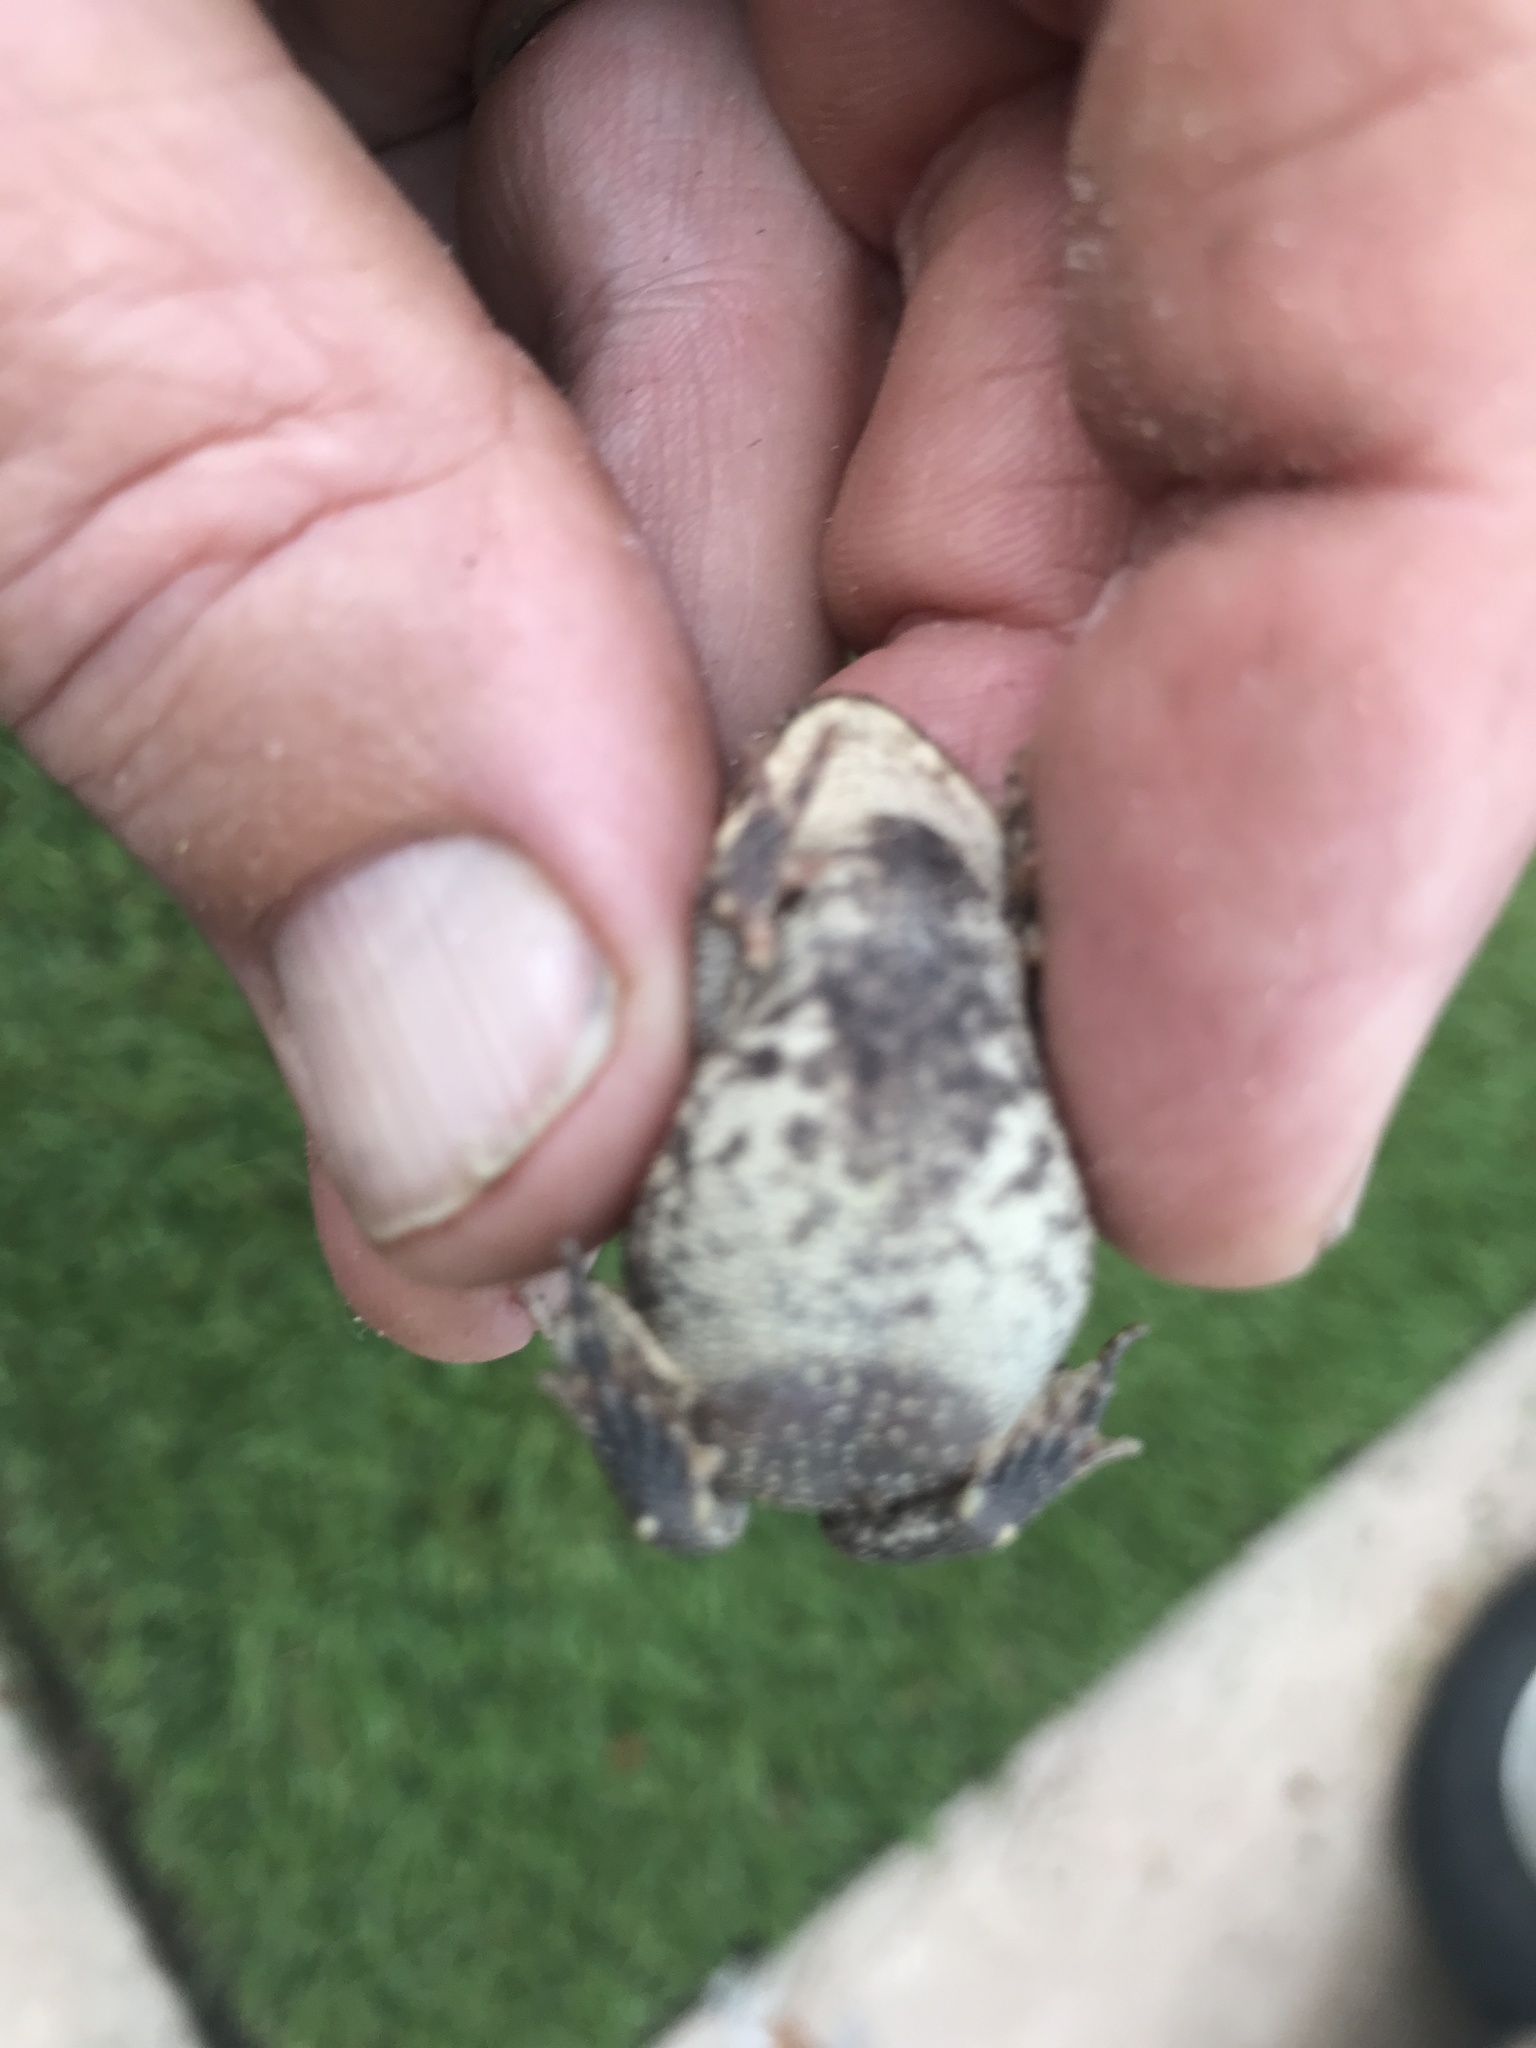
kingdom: Animalia
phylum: Chordata
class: Amphibia
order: Anura
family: Bufonidae
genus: Incilius
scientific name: Incilius nebulifer
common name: Gulf coast toad
